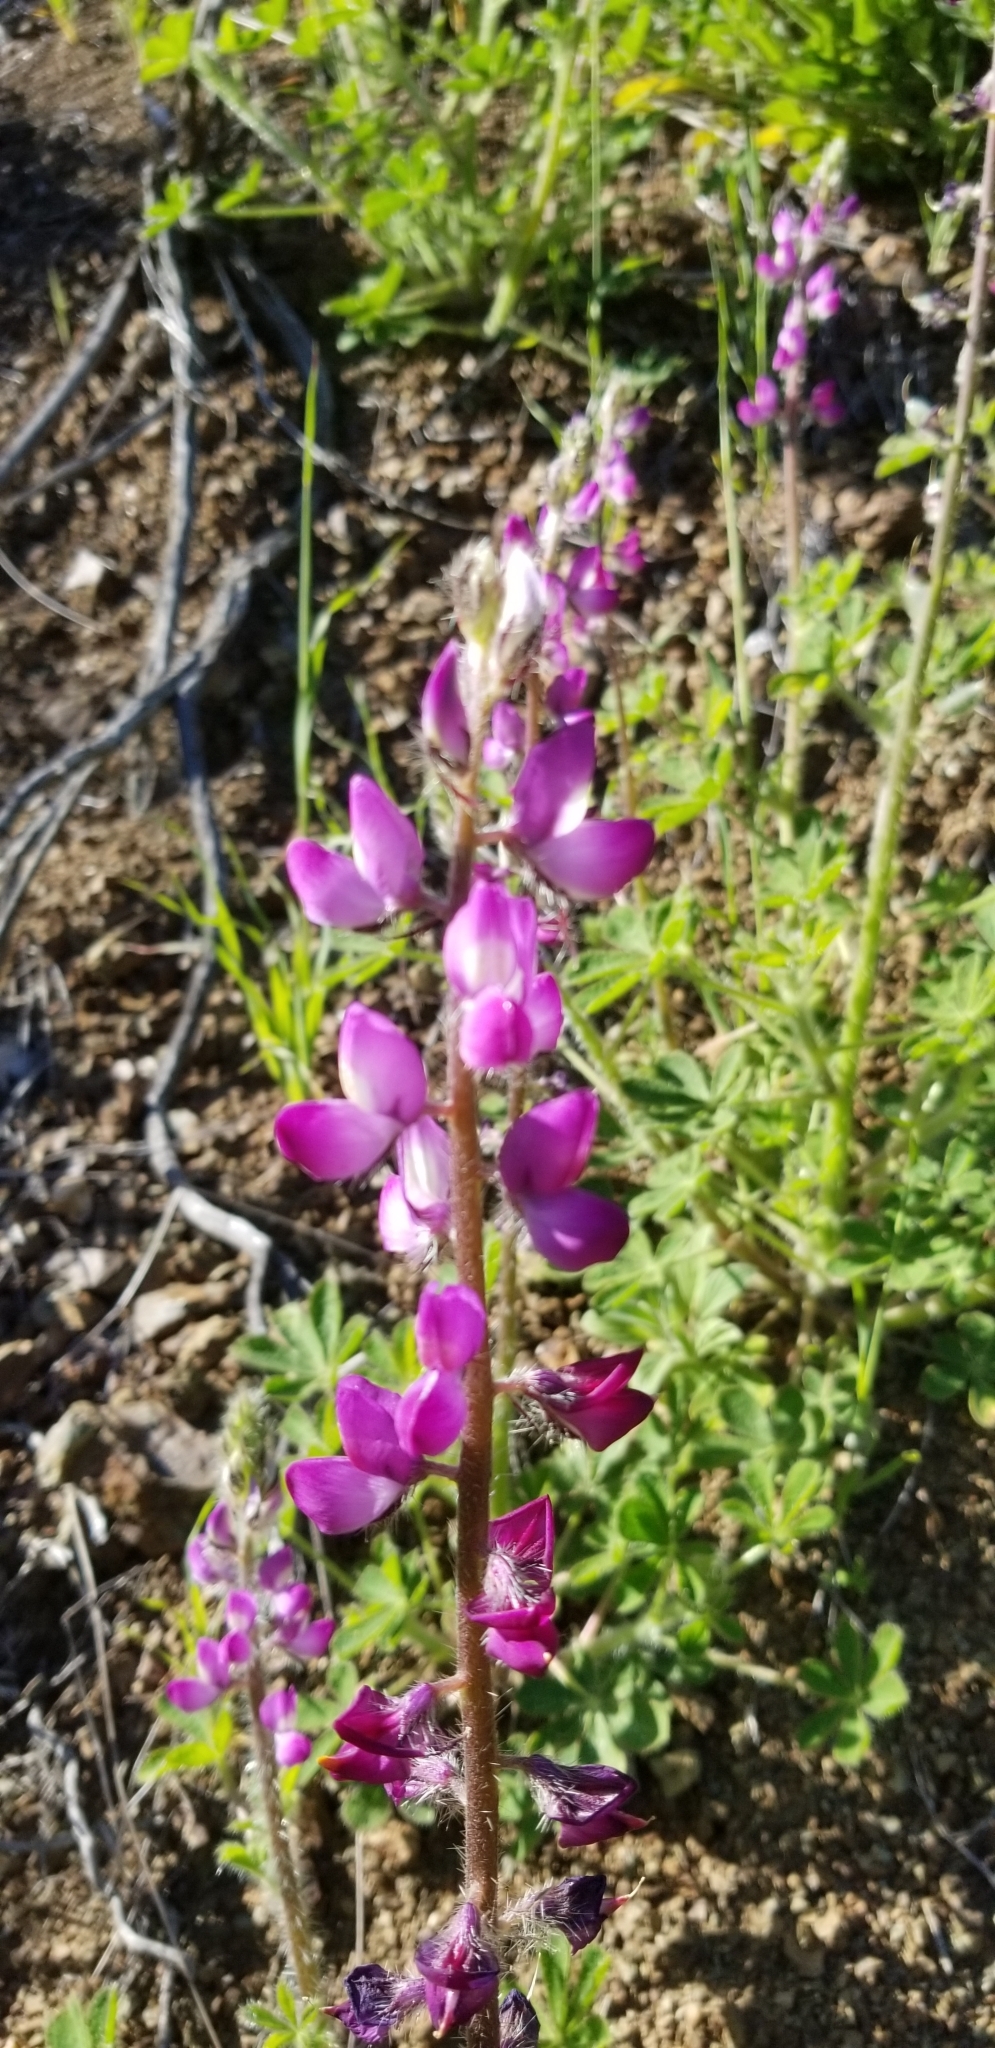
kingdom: Plantae
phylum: Tracheophyta
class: Magnoliopsida
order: Fabales
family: Fabaceae
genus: Lupinus
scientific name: Lupinus hirsutissimus
